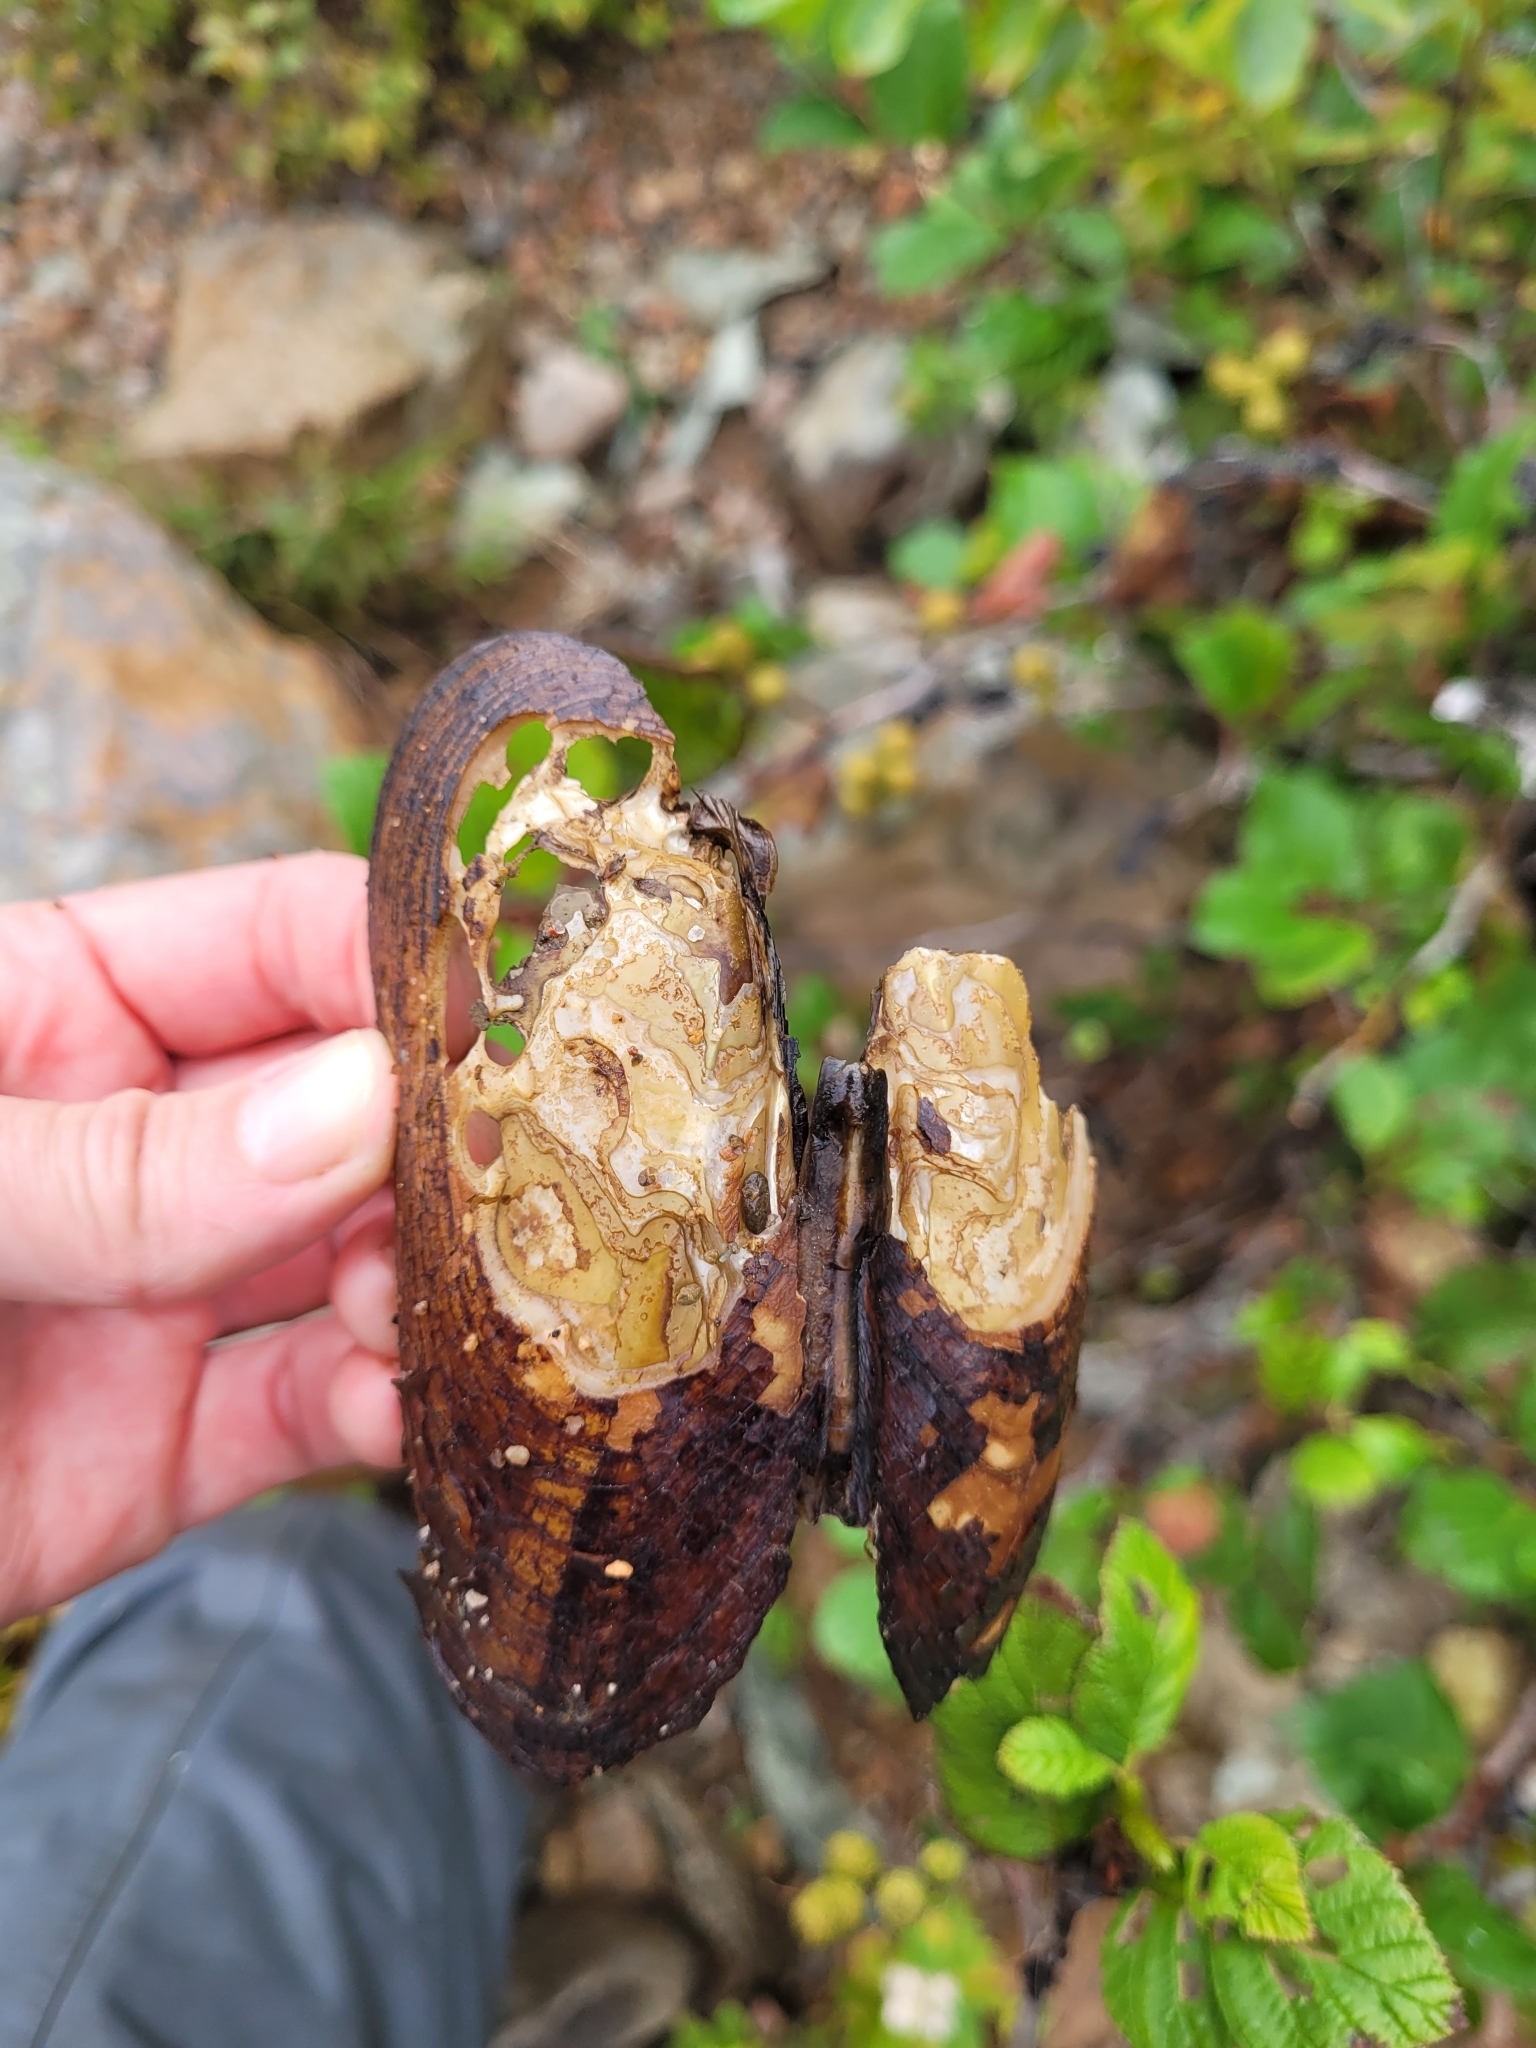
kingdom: Animalia
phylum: Mollusca
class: Bivalvia
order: Unionida
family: Margaritiferidae
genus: Margaritifera
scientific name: Margaritifera margaritifera
